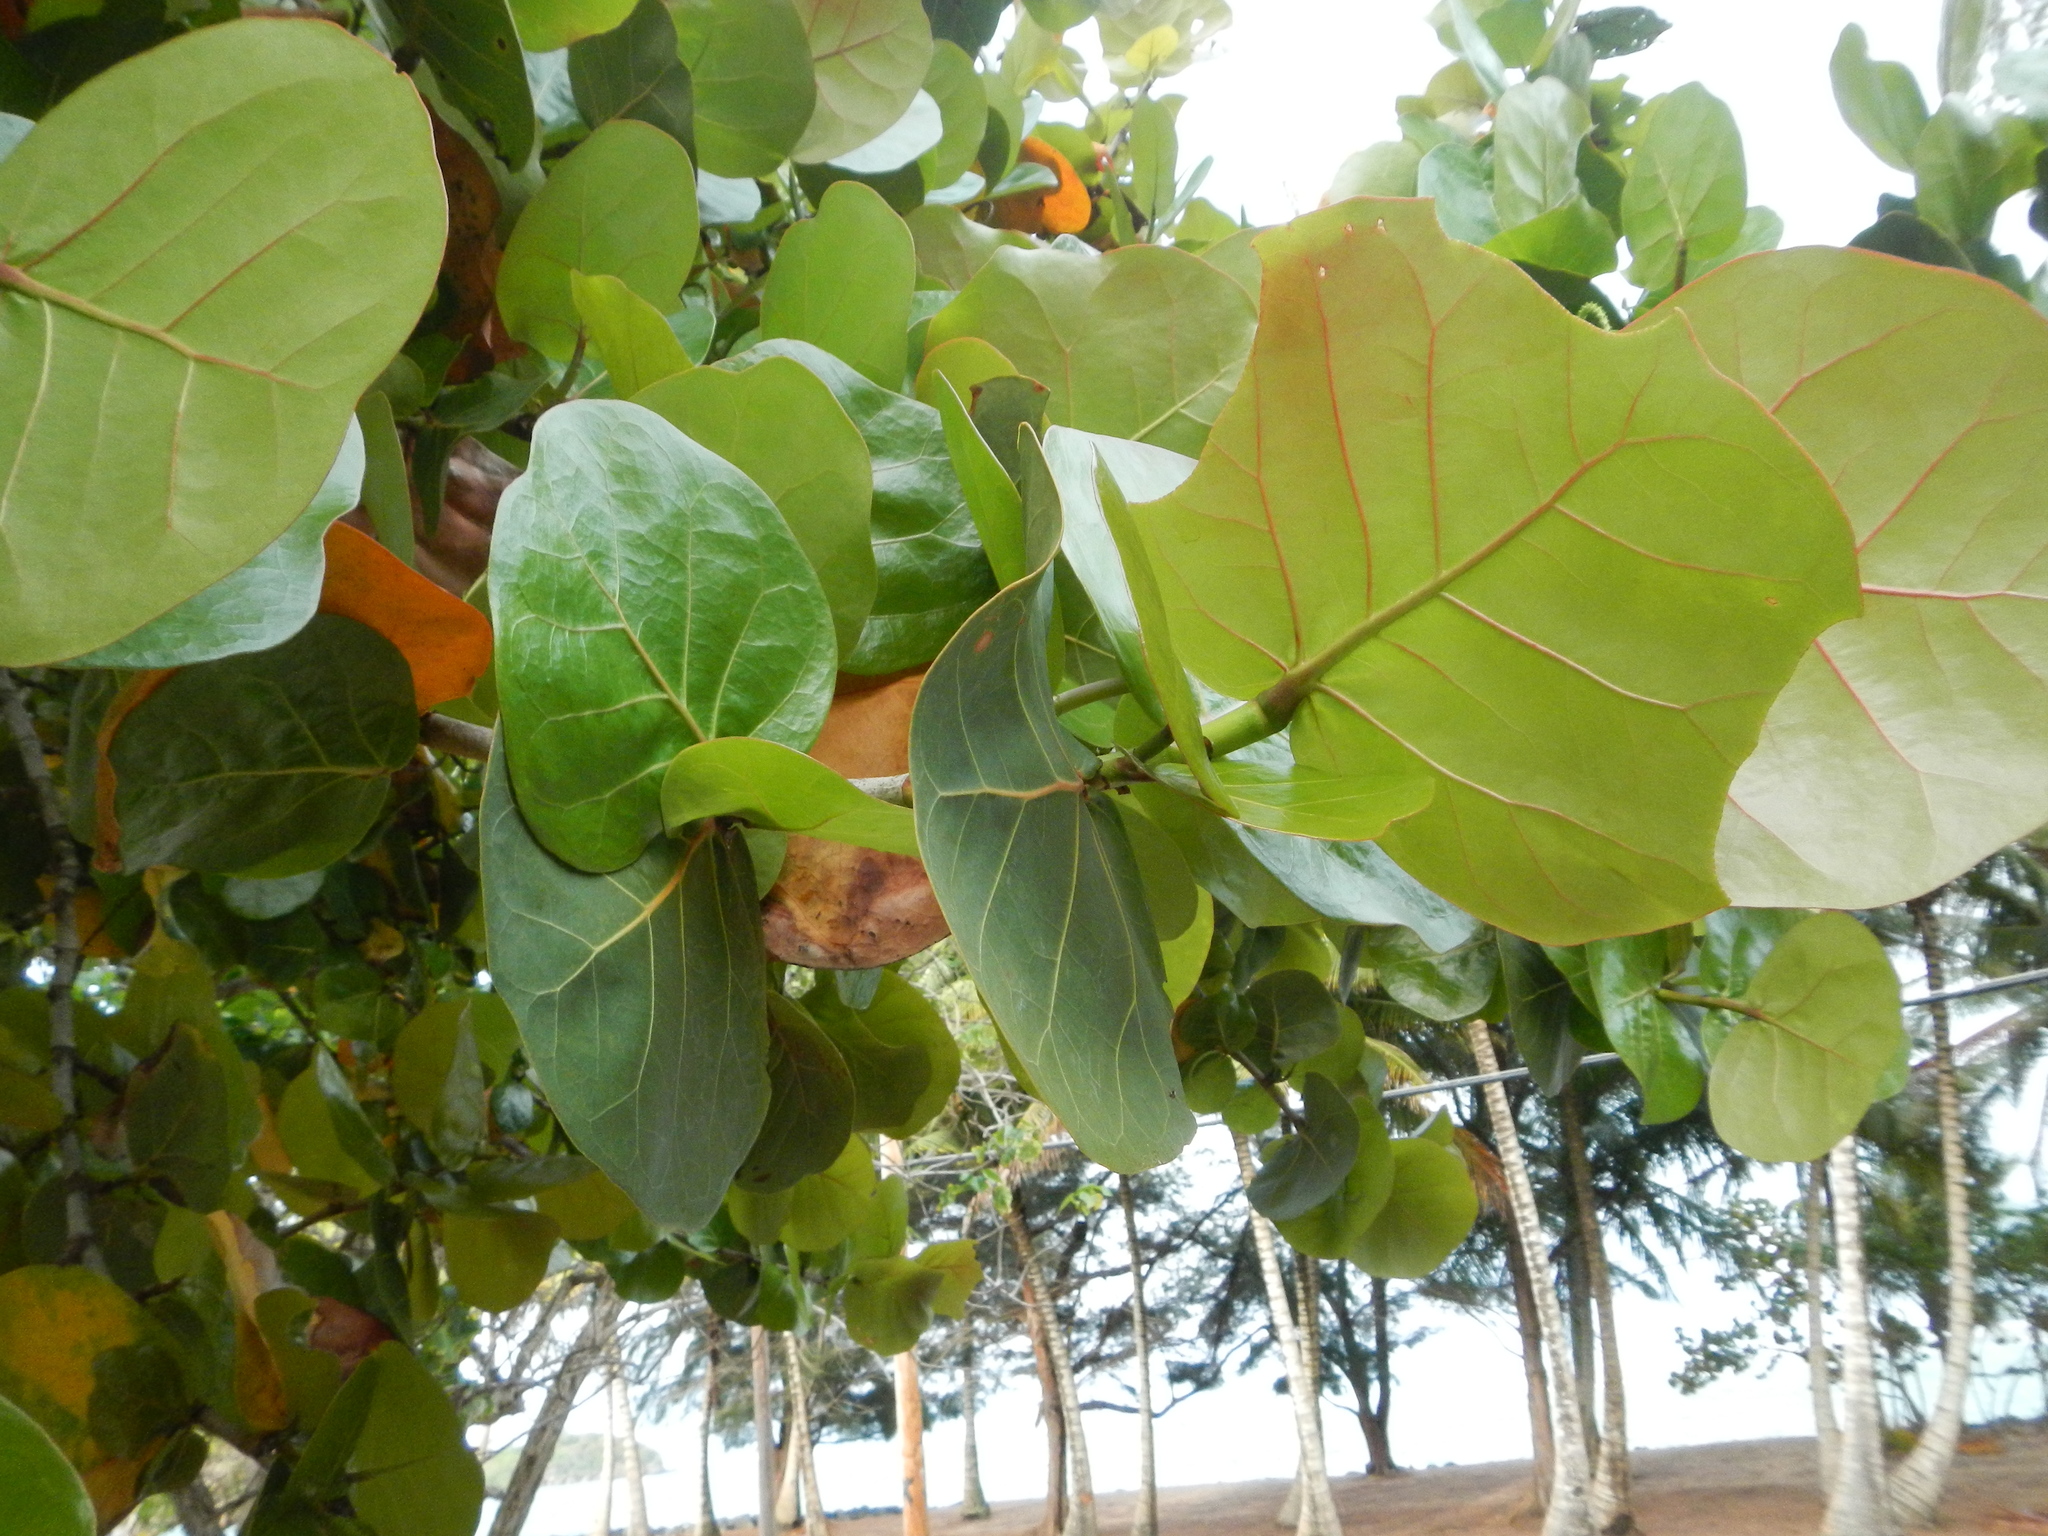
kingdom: Plantae
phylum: Tracheophyta
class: Magnoliopsida
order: Caryophyllales
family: Polygonaceae
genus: Coccoloba
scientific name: Coccoloba uvifera
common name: Seagrape
